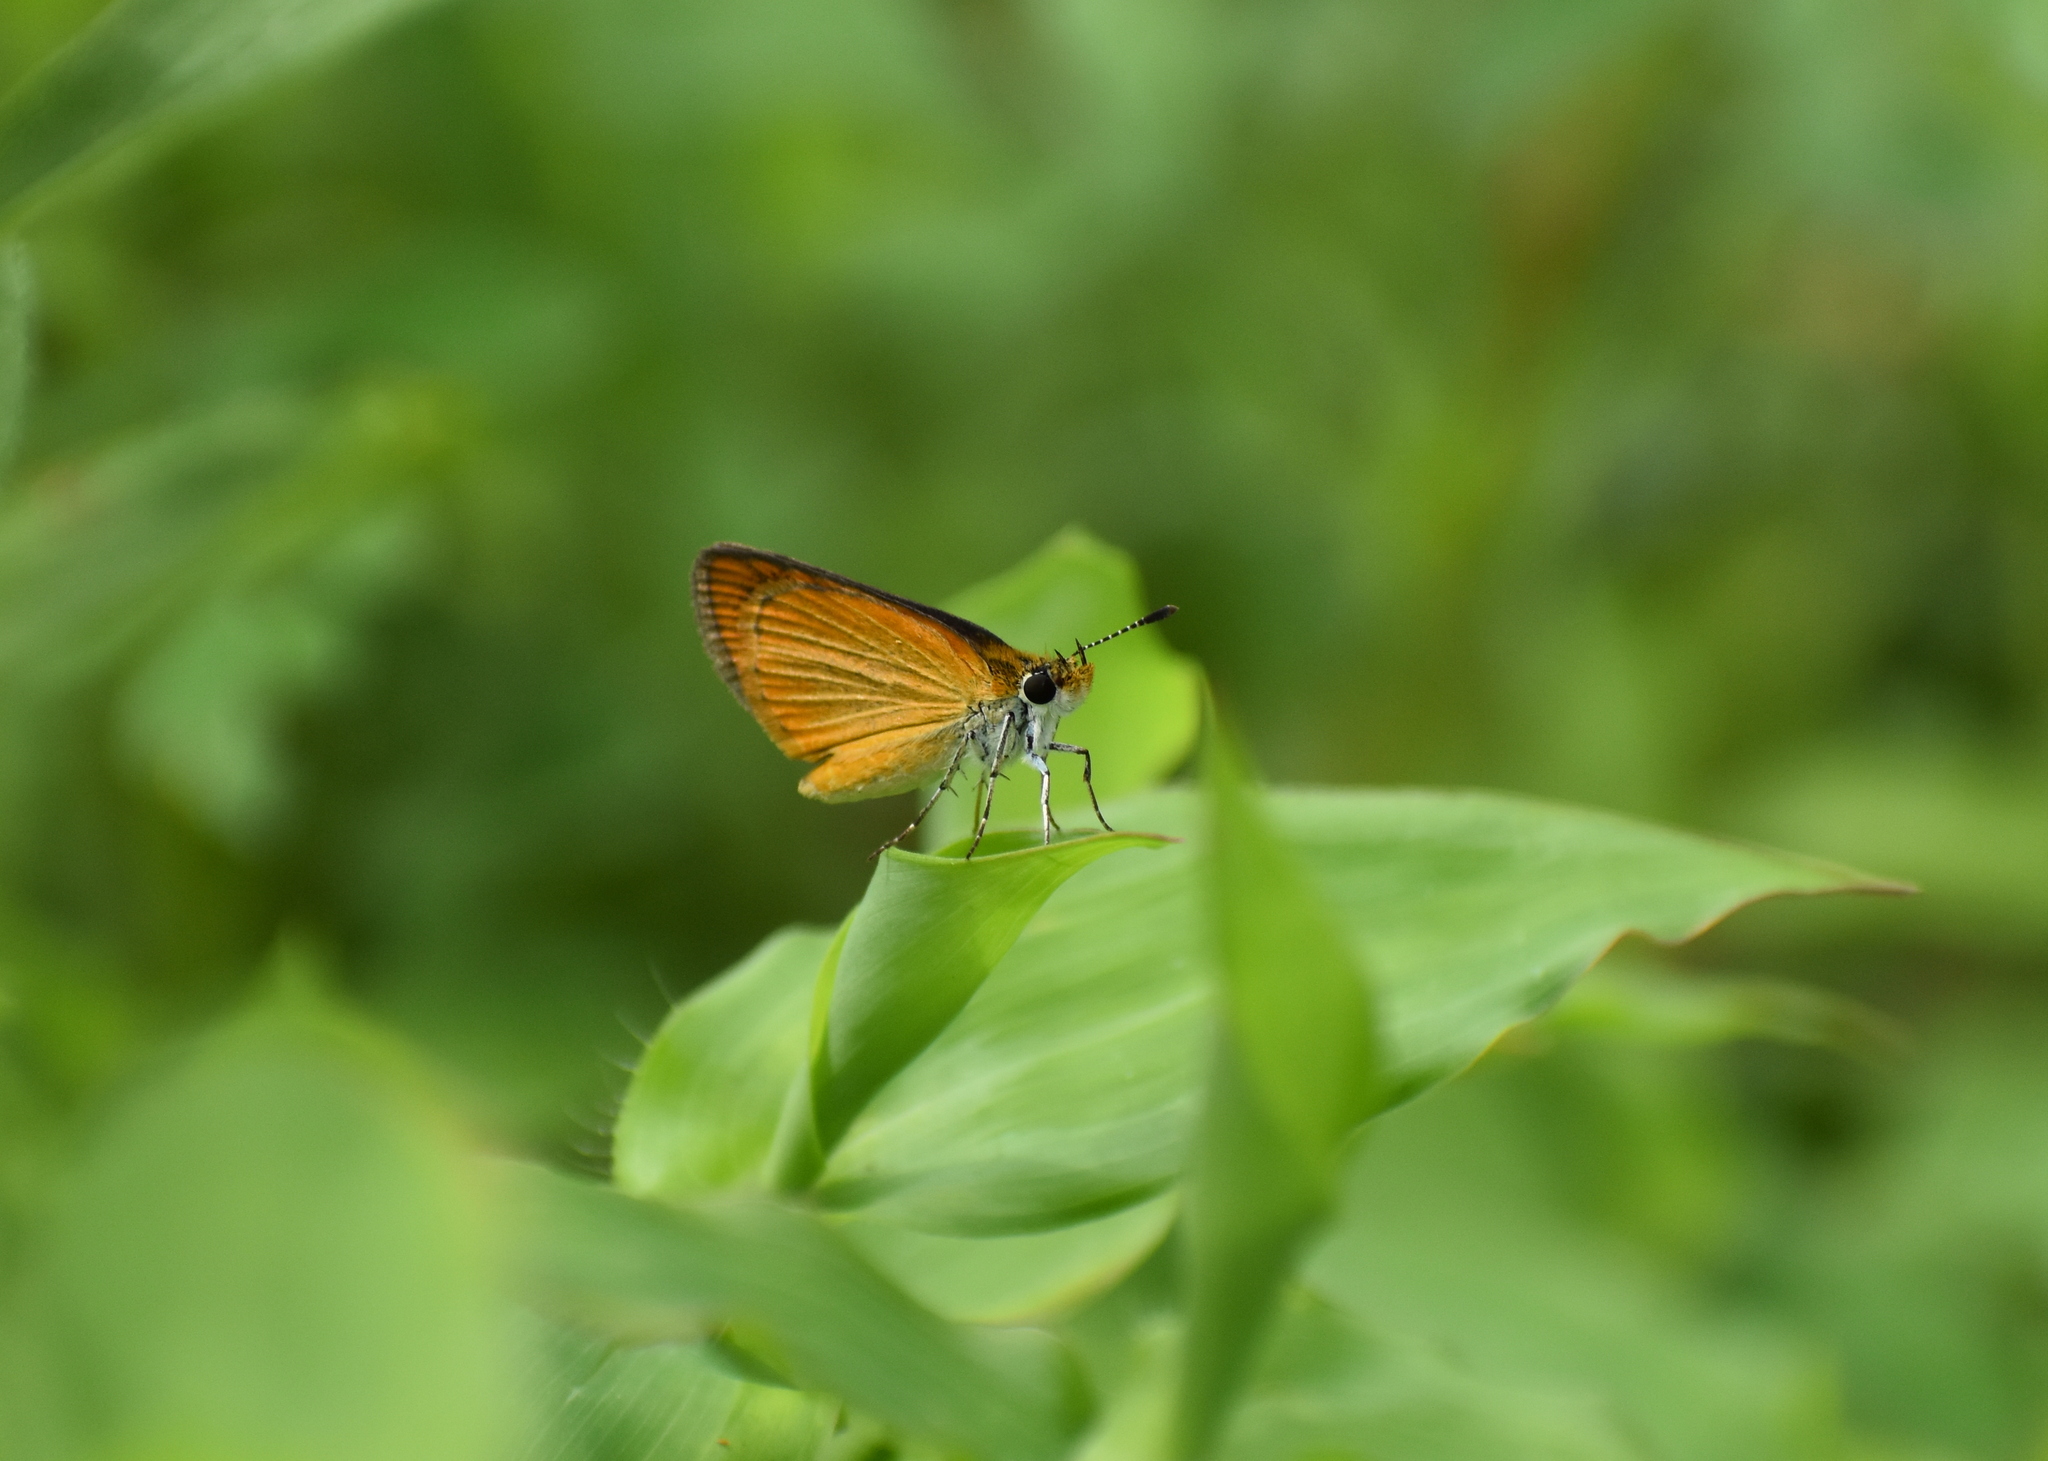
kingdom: Animalia
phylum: Arthropoda
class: Insecta
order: Lepidoptera
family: Hesperiidae
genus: Ancyloxypha
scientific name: Ancyloxypha numitor
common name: Least skipper
